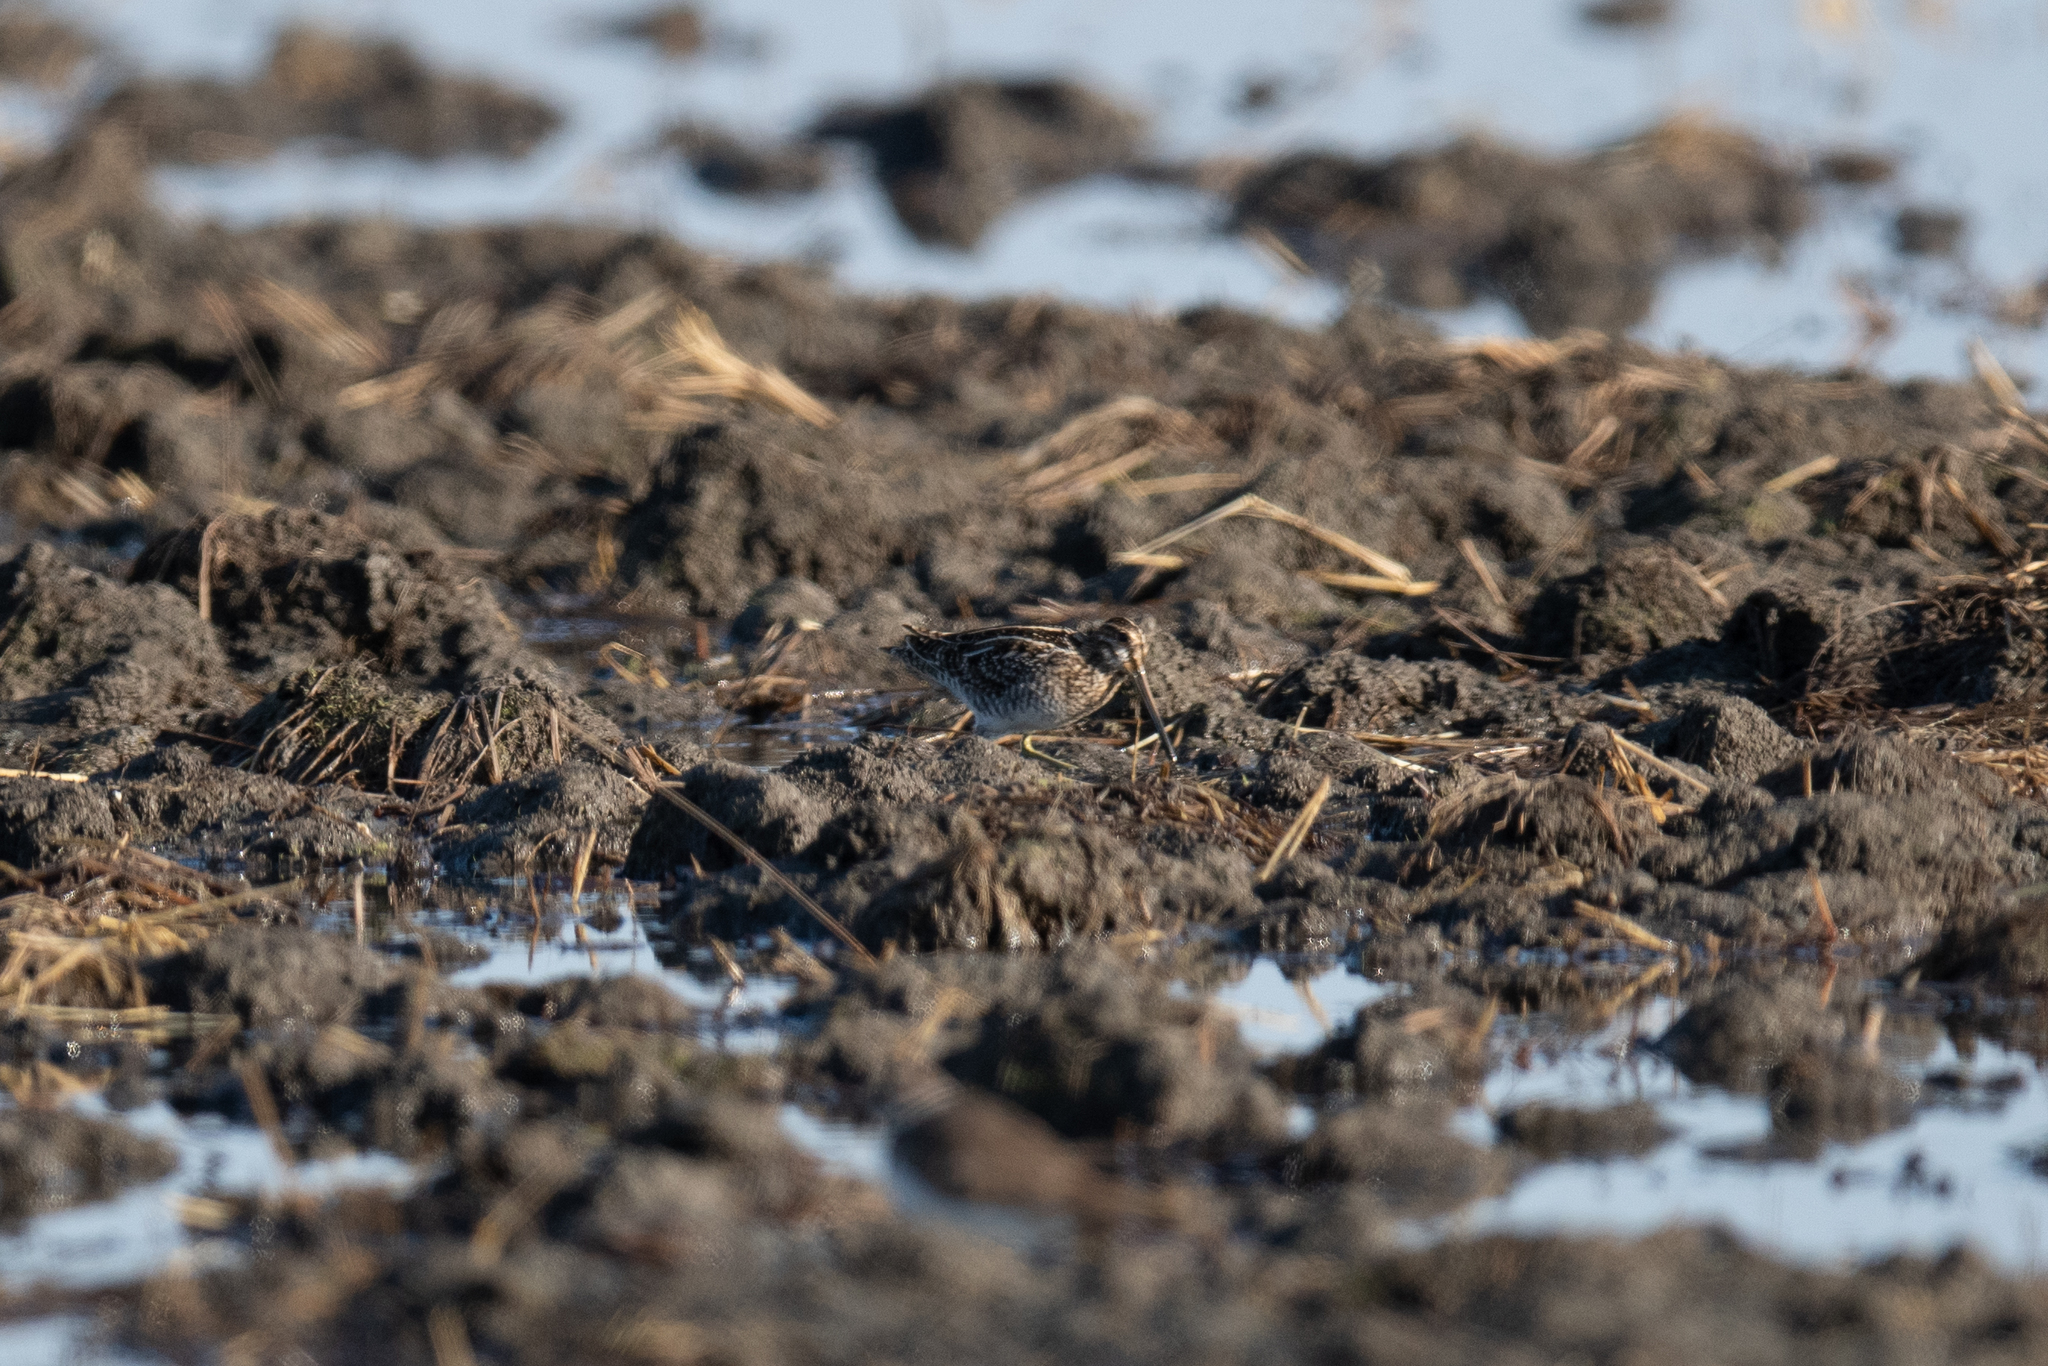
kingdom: Animalia
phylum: Chordata
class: Aves
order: Charadriiformes
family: Scolopacidae
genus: Gallinago
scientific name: Gallinago delicata
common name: Wilson's snipe
